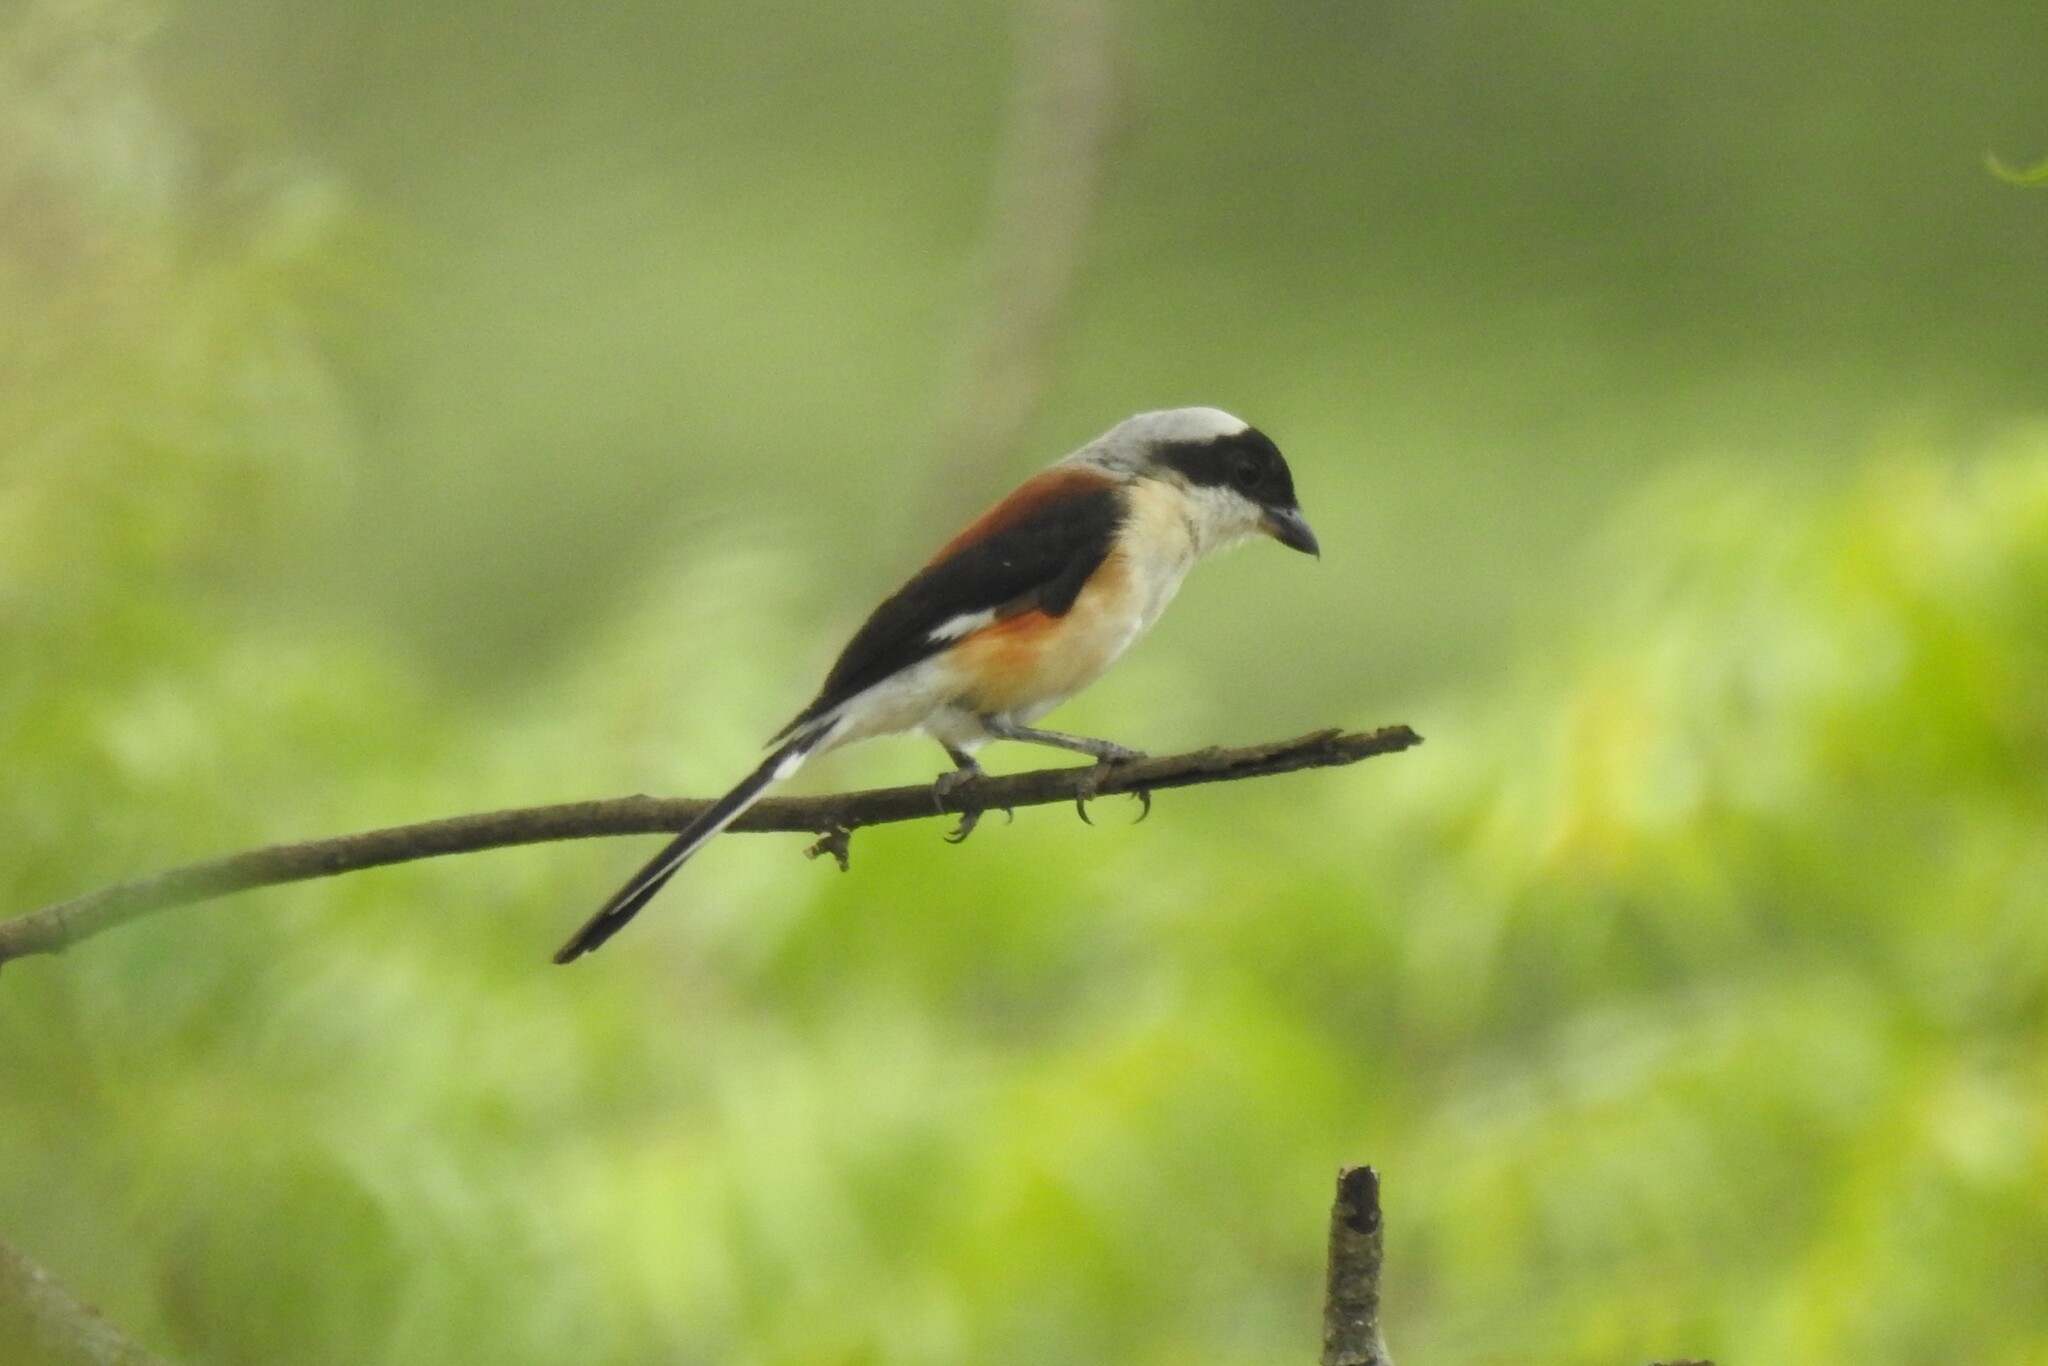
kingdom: Animalia
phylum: Chordata
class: Aves
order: Passeriformes
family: Laniidae
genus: Lanius
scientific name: Lanius schach
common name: Long-tailed shrike
